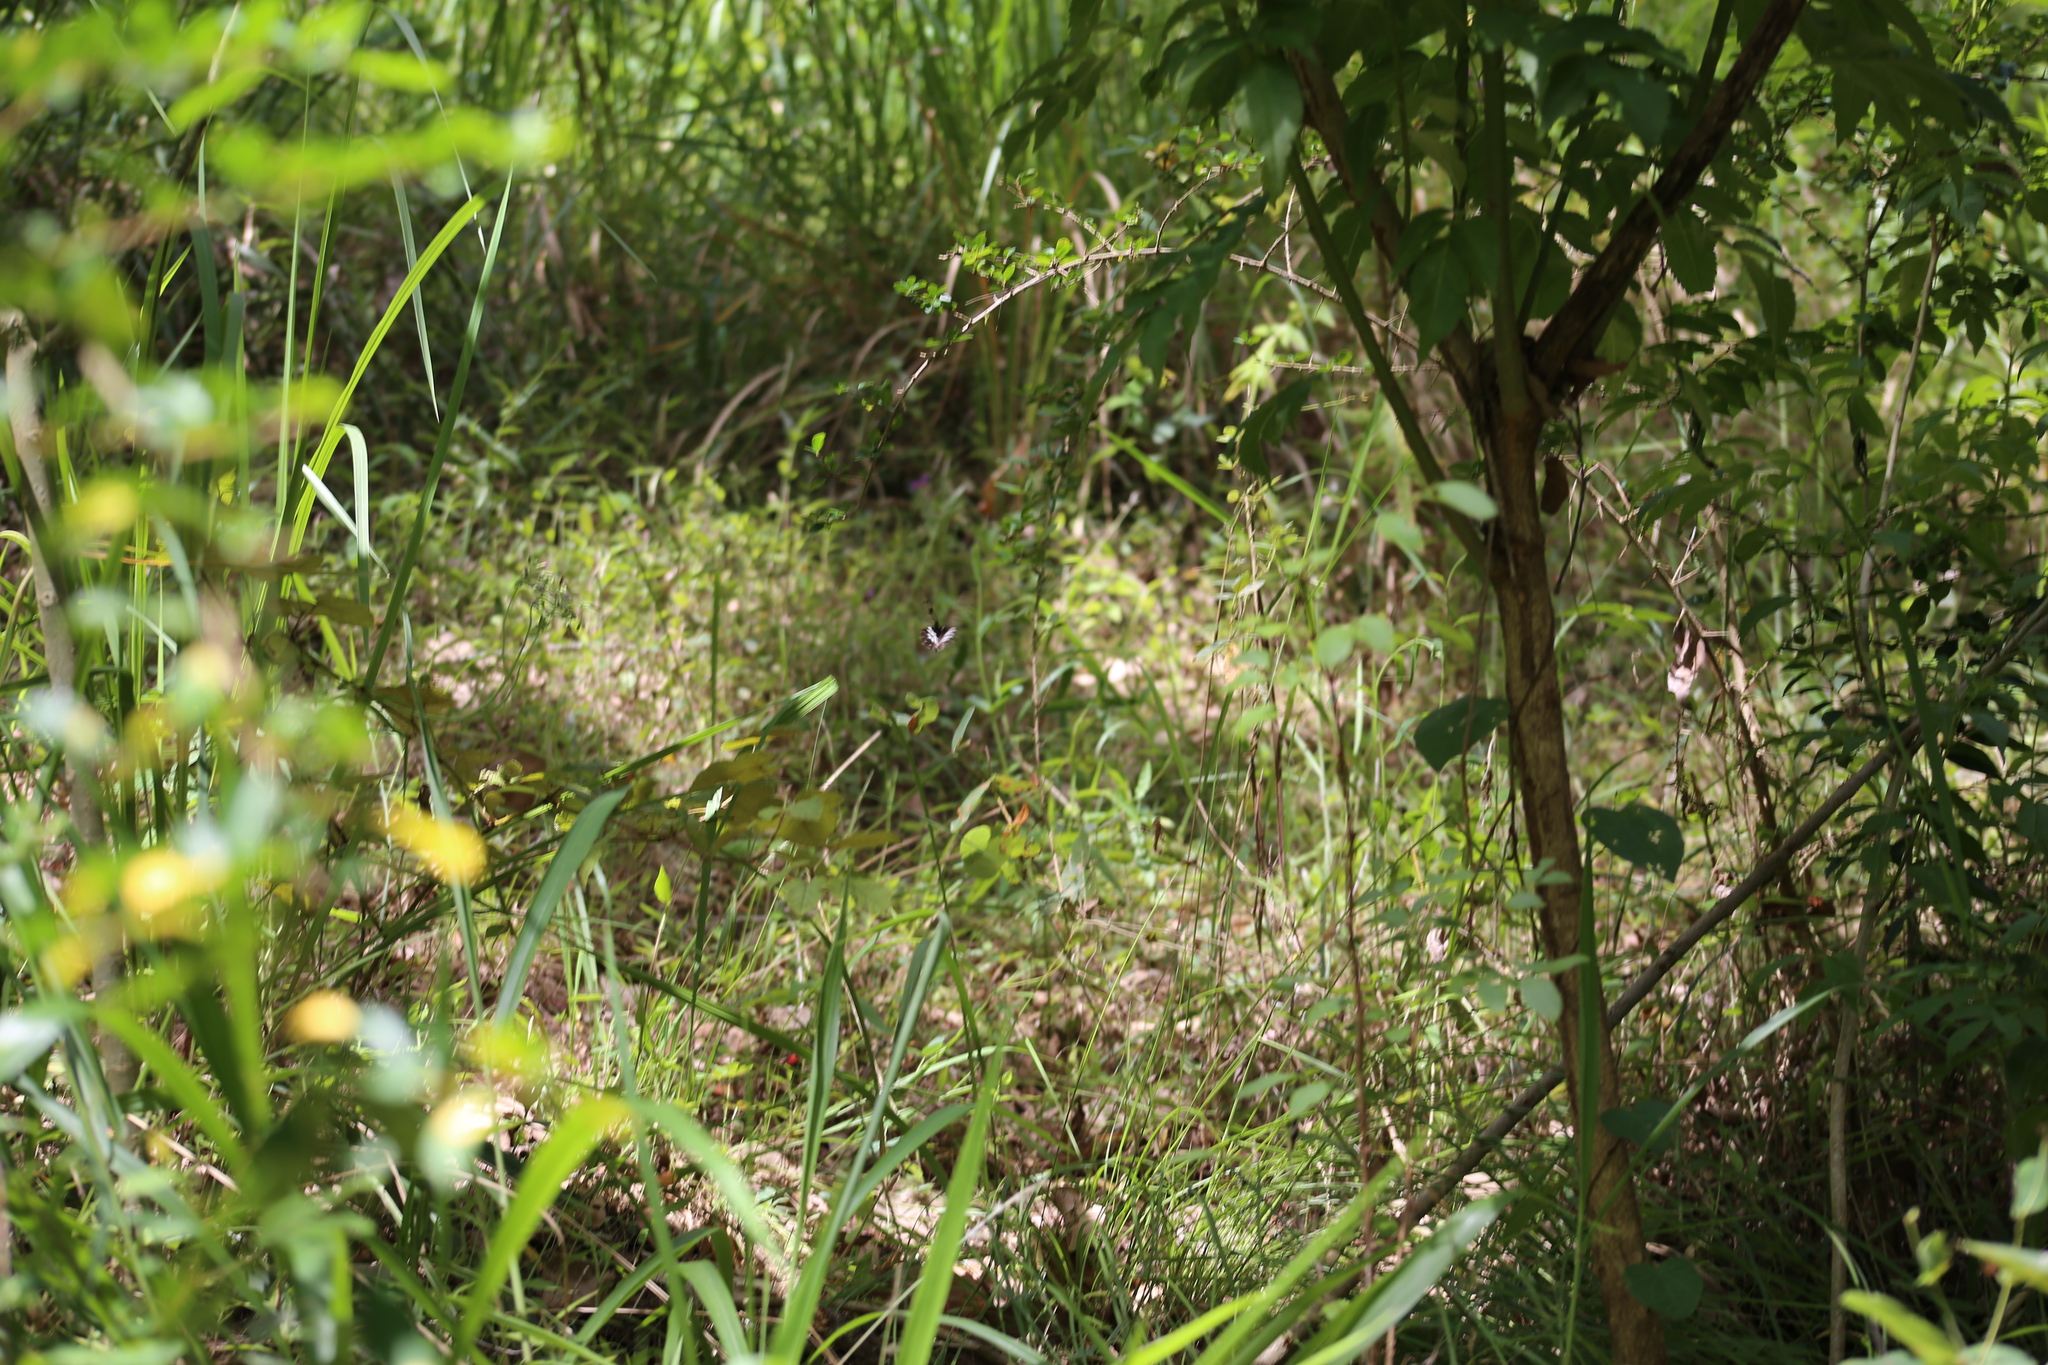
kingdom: Animalia
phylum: Arthropoda
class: Insecta
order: Lepidoptera
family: Papilionidae
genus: Cressida
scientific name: Cressida cressida
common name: Big greasy
